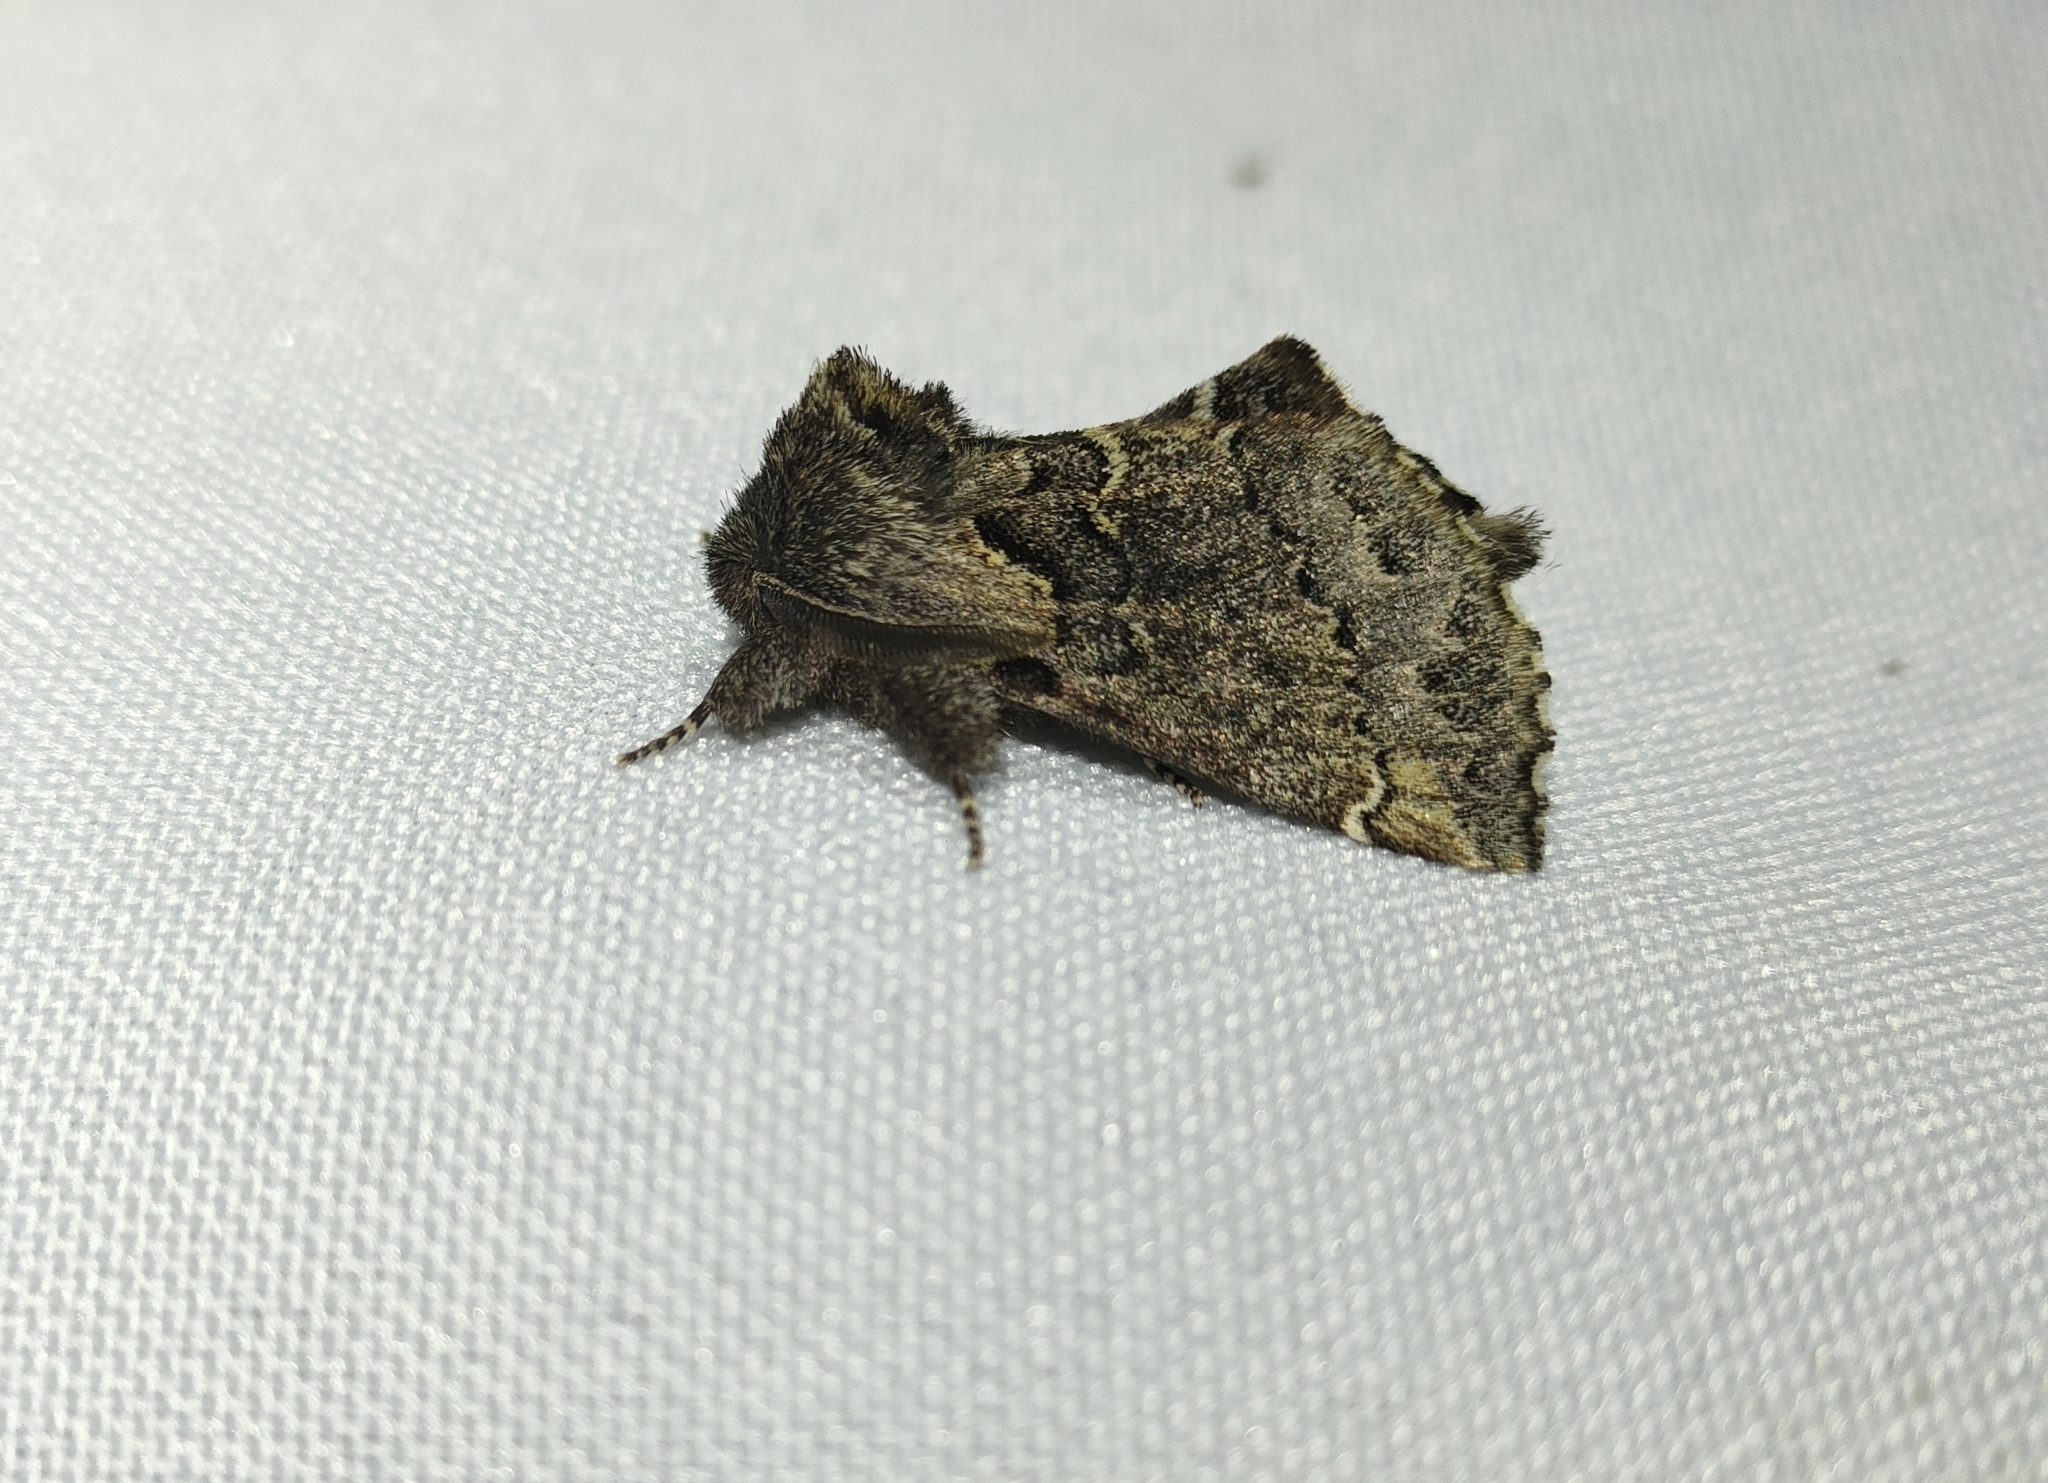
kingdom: Animalia
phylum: Arthropoda
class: Insecta
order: Lepidoptera
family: Notodontidae
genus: Rhegmatophila
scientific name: Rhegmatophila alpina
